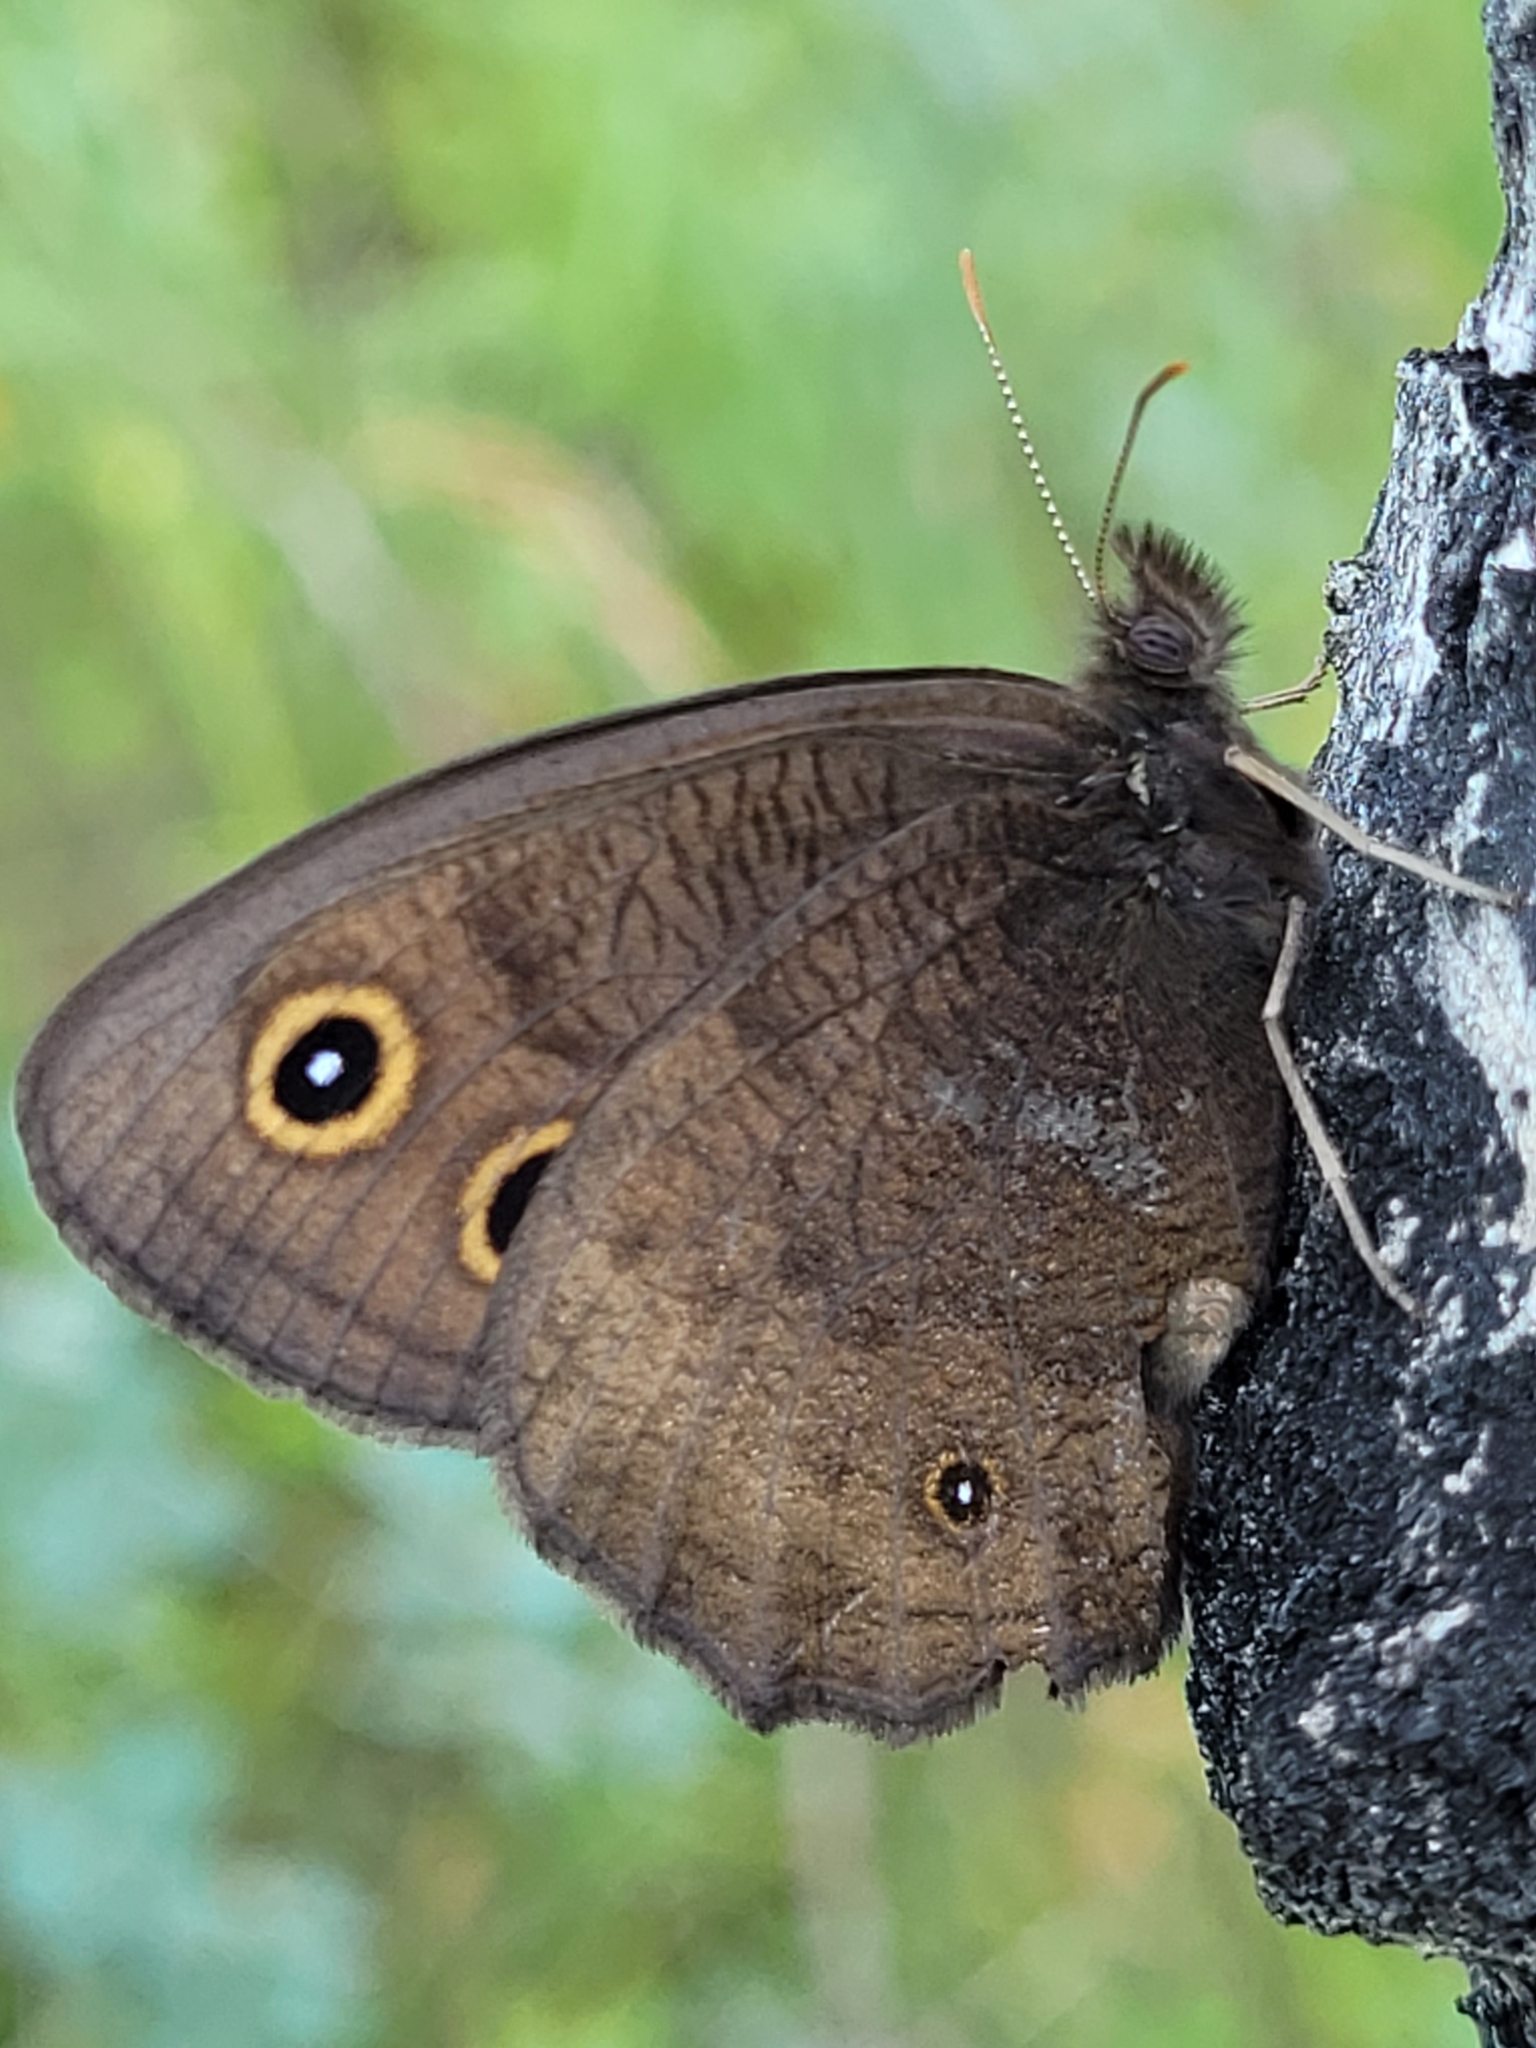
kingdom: Animalia
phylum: Arthropoda
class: Insecta
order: Lepidoptera
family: Nymphalidae
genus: Cercyonis
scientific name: Cercyonis pegala
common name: Common wood-nymph
